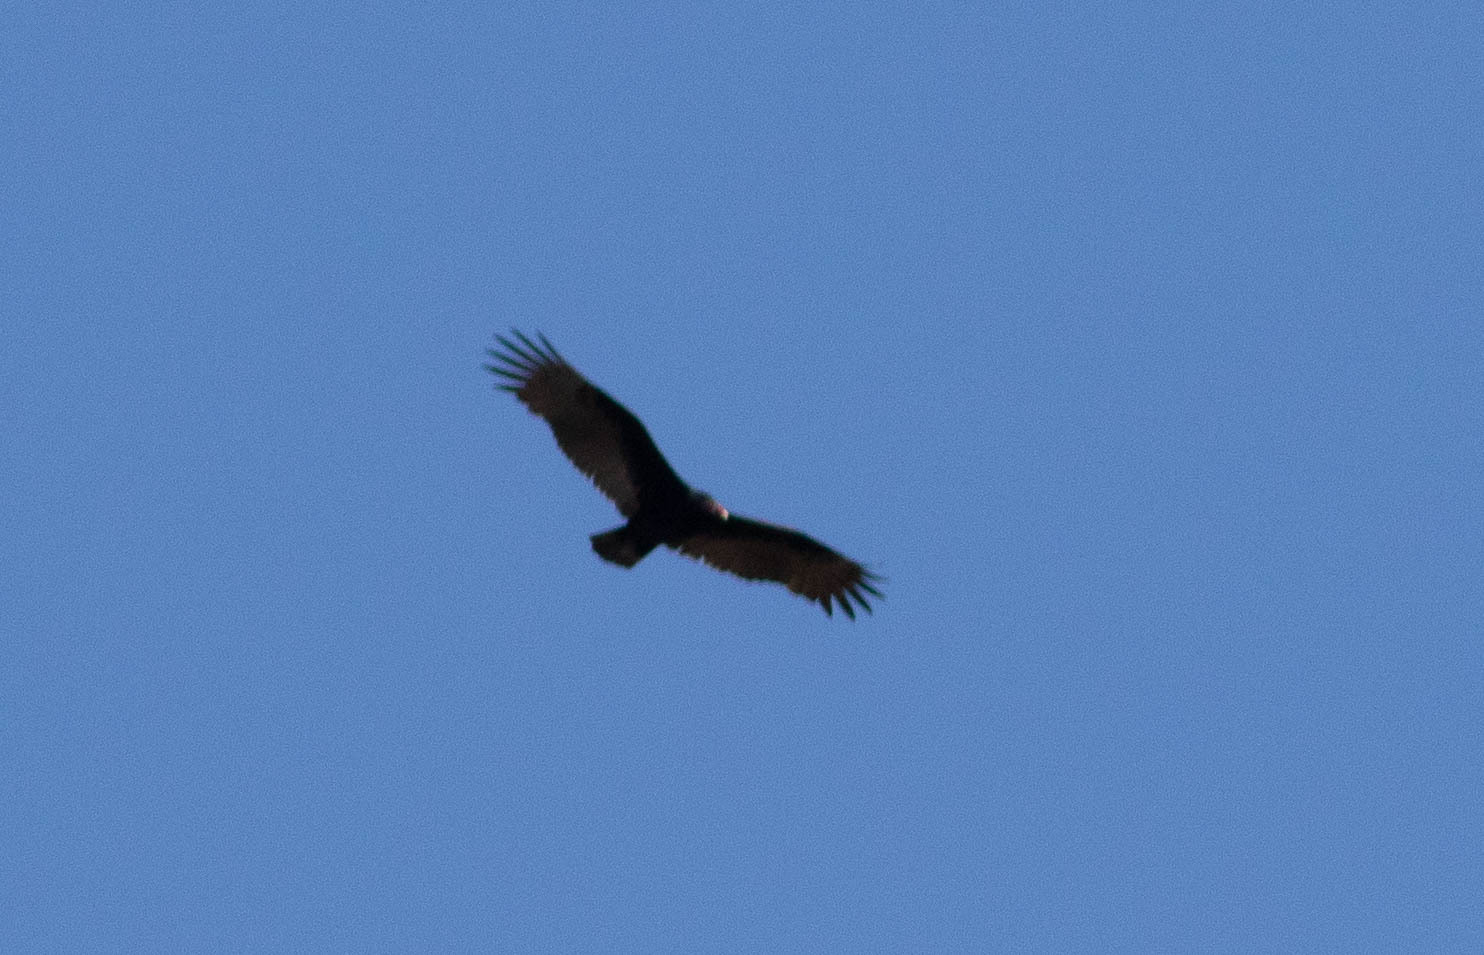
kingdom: Animalia
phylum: Chordata
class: Aves
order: Accipitriformes
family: Cathartidae
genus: Cathartes
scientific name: Cathartes aura
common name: Turkey vulture
